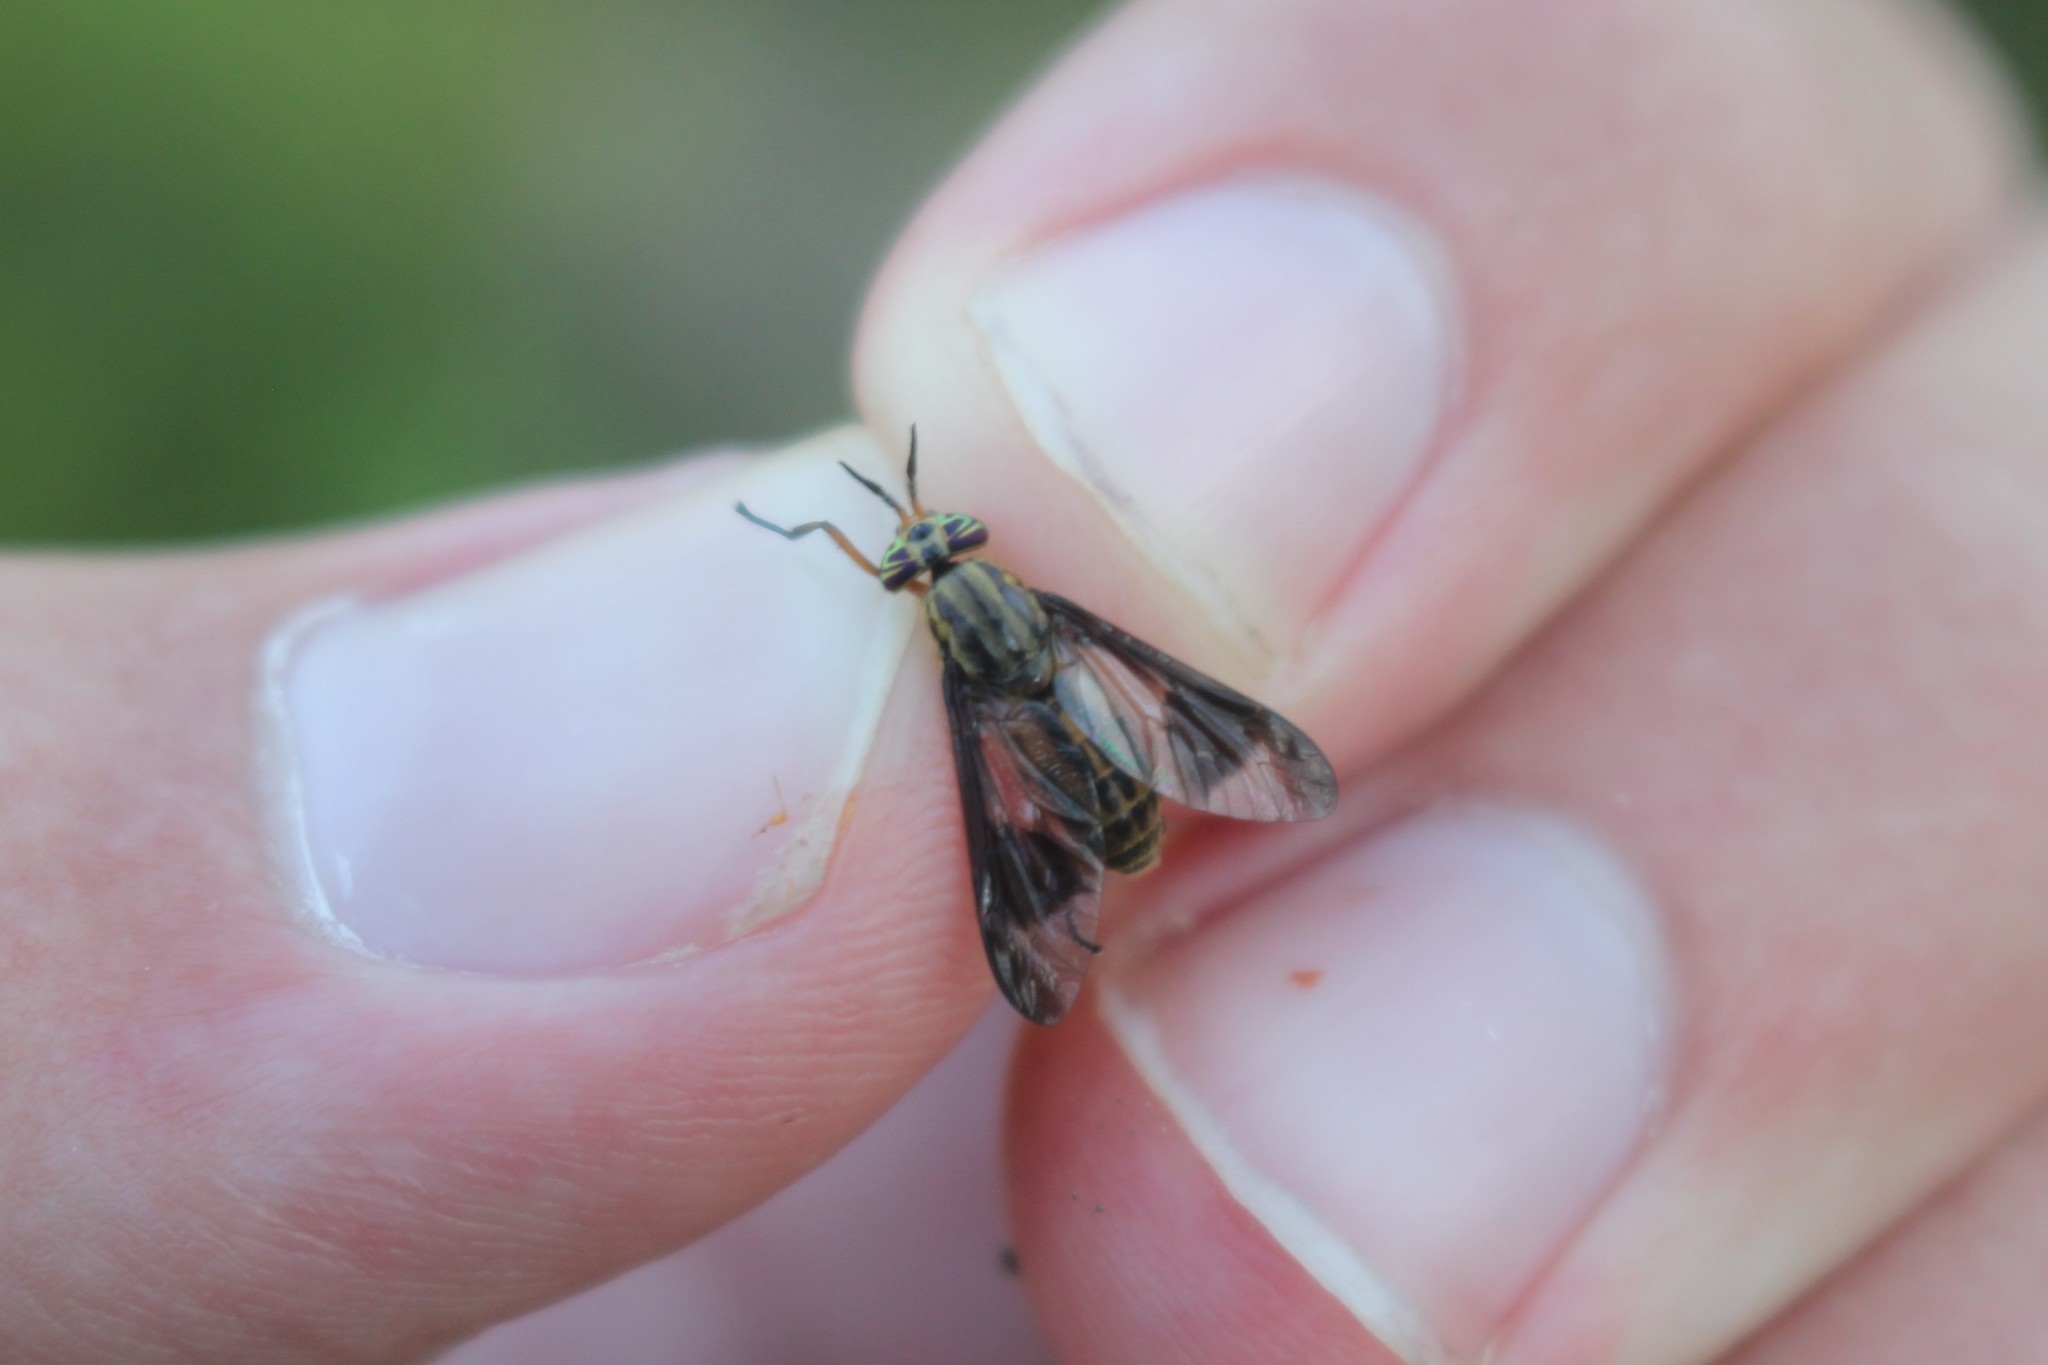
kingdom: Animalia
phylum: Arthropoda
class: Insecta
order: Diptera
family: Tabanidae
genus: Chrysops
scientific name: Chrysops striatus
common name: Striated deer fly
